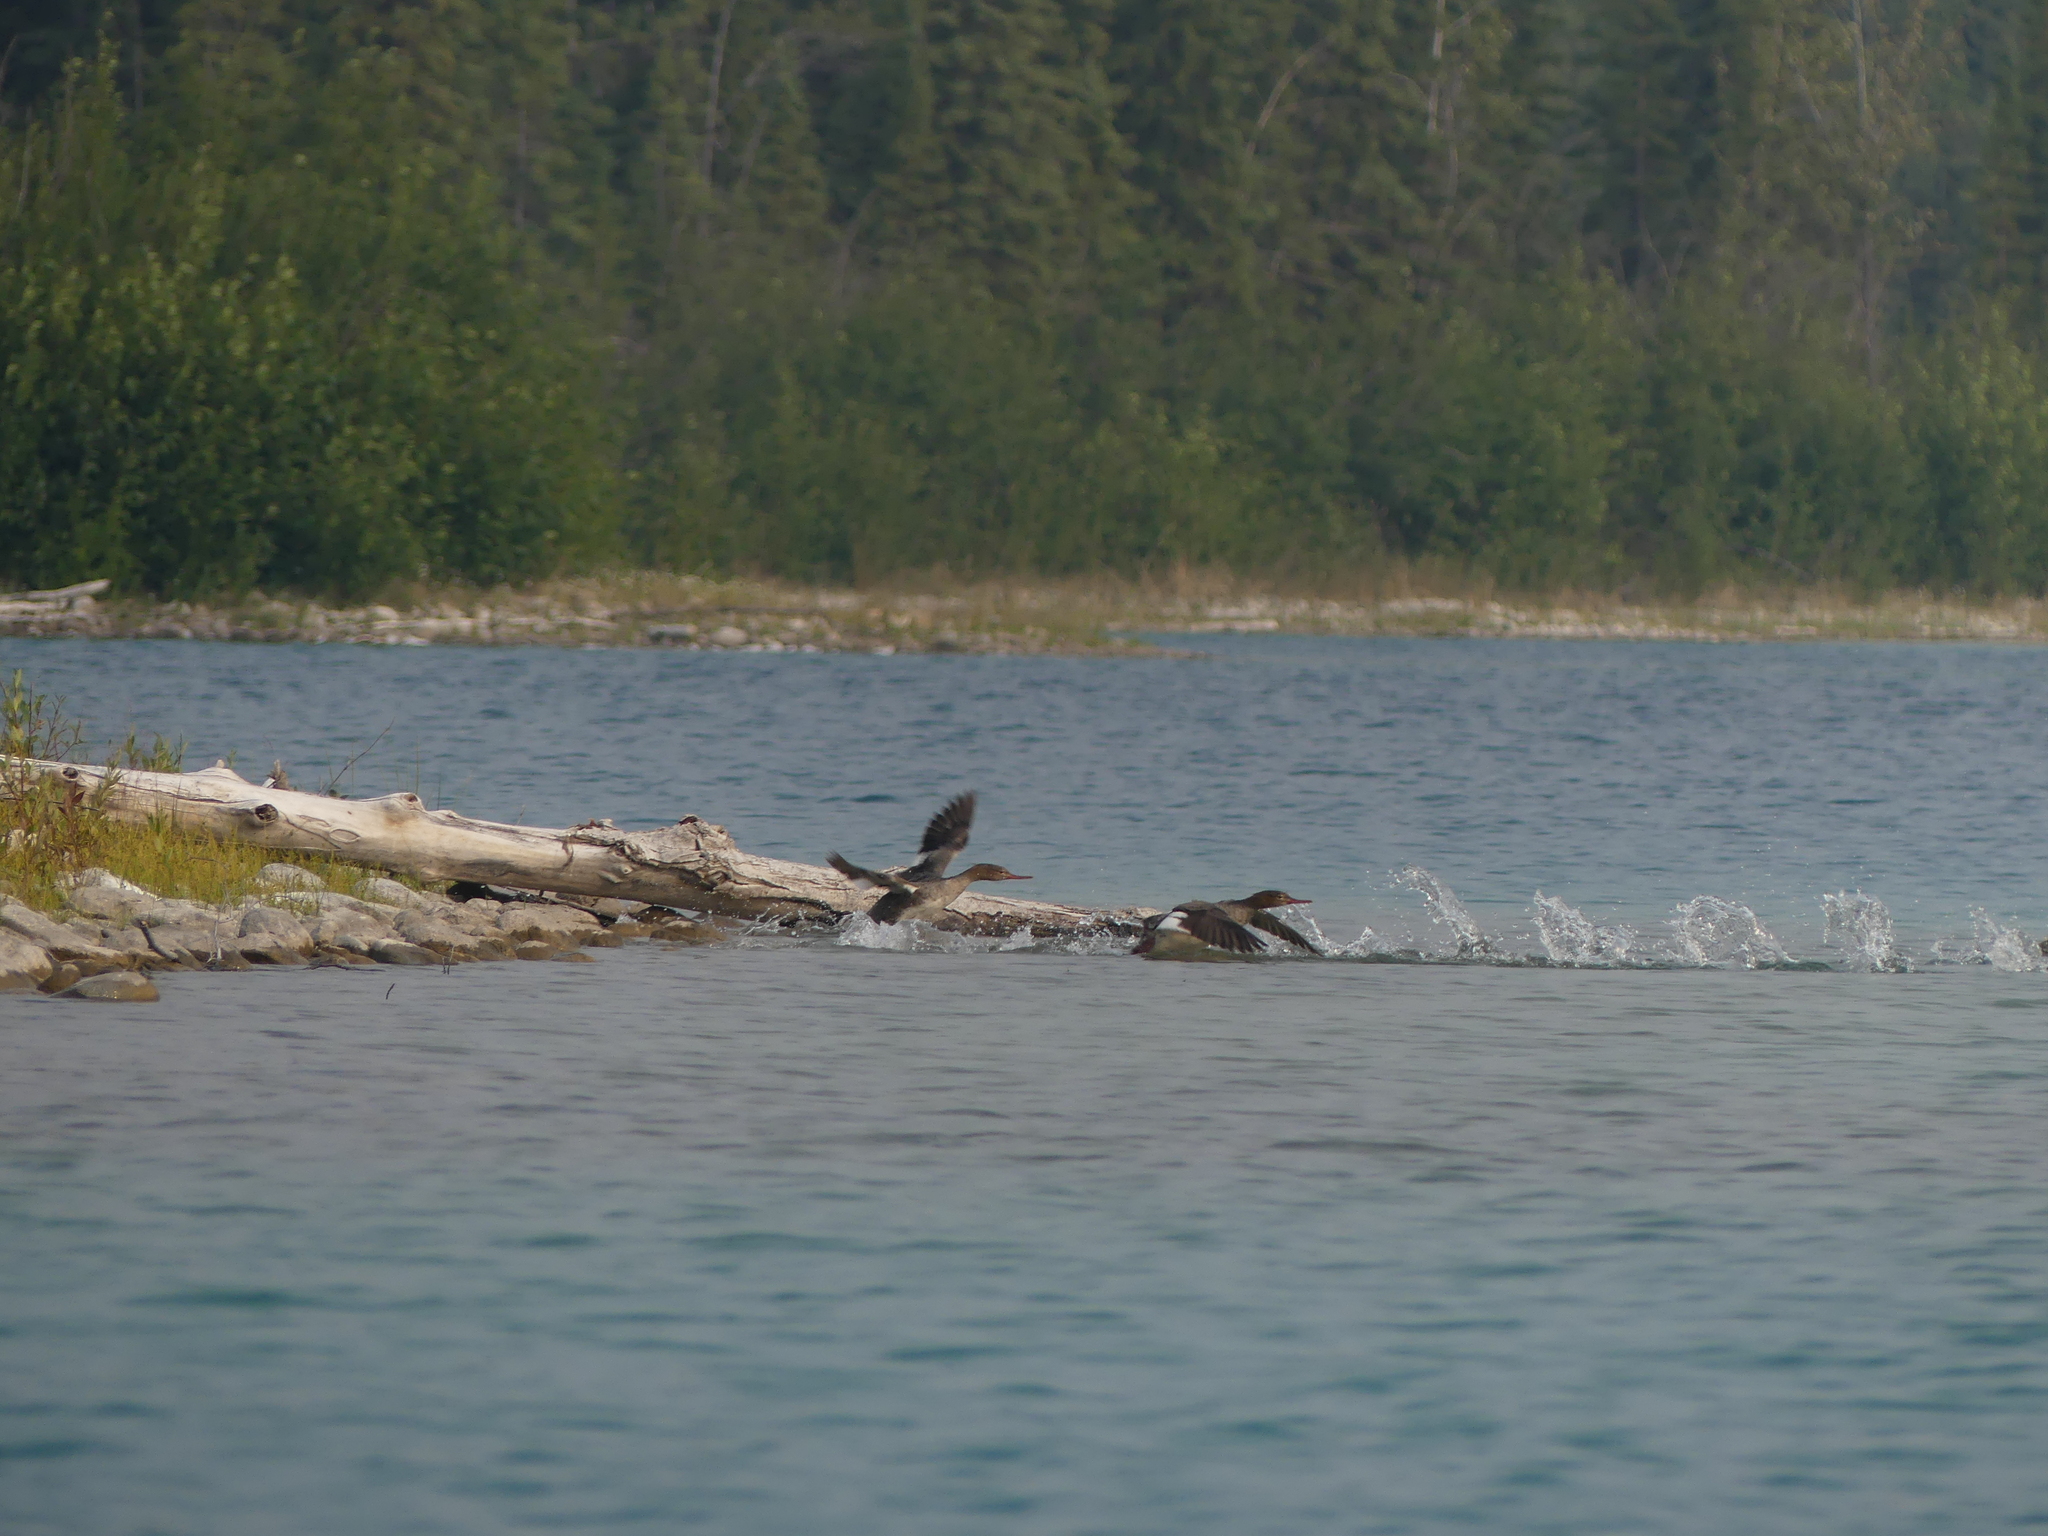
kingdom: Animalia
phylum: Chordata
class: Aves
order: Anseriformes
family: Anatidae
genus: Mergus
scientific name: Mergus merganser
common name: Common merganser
